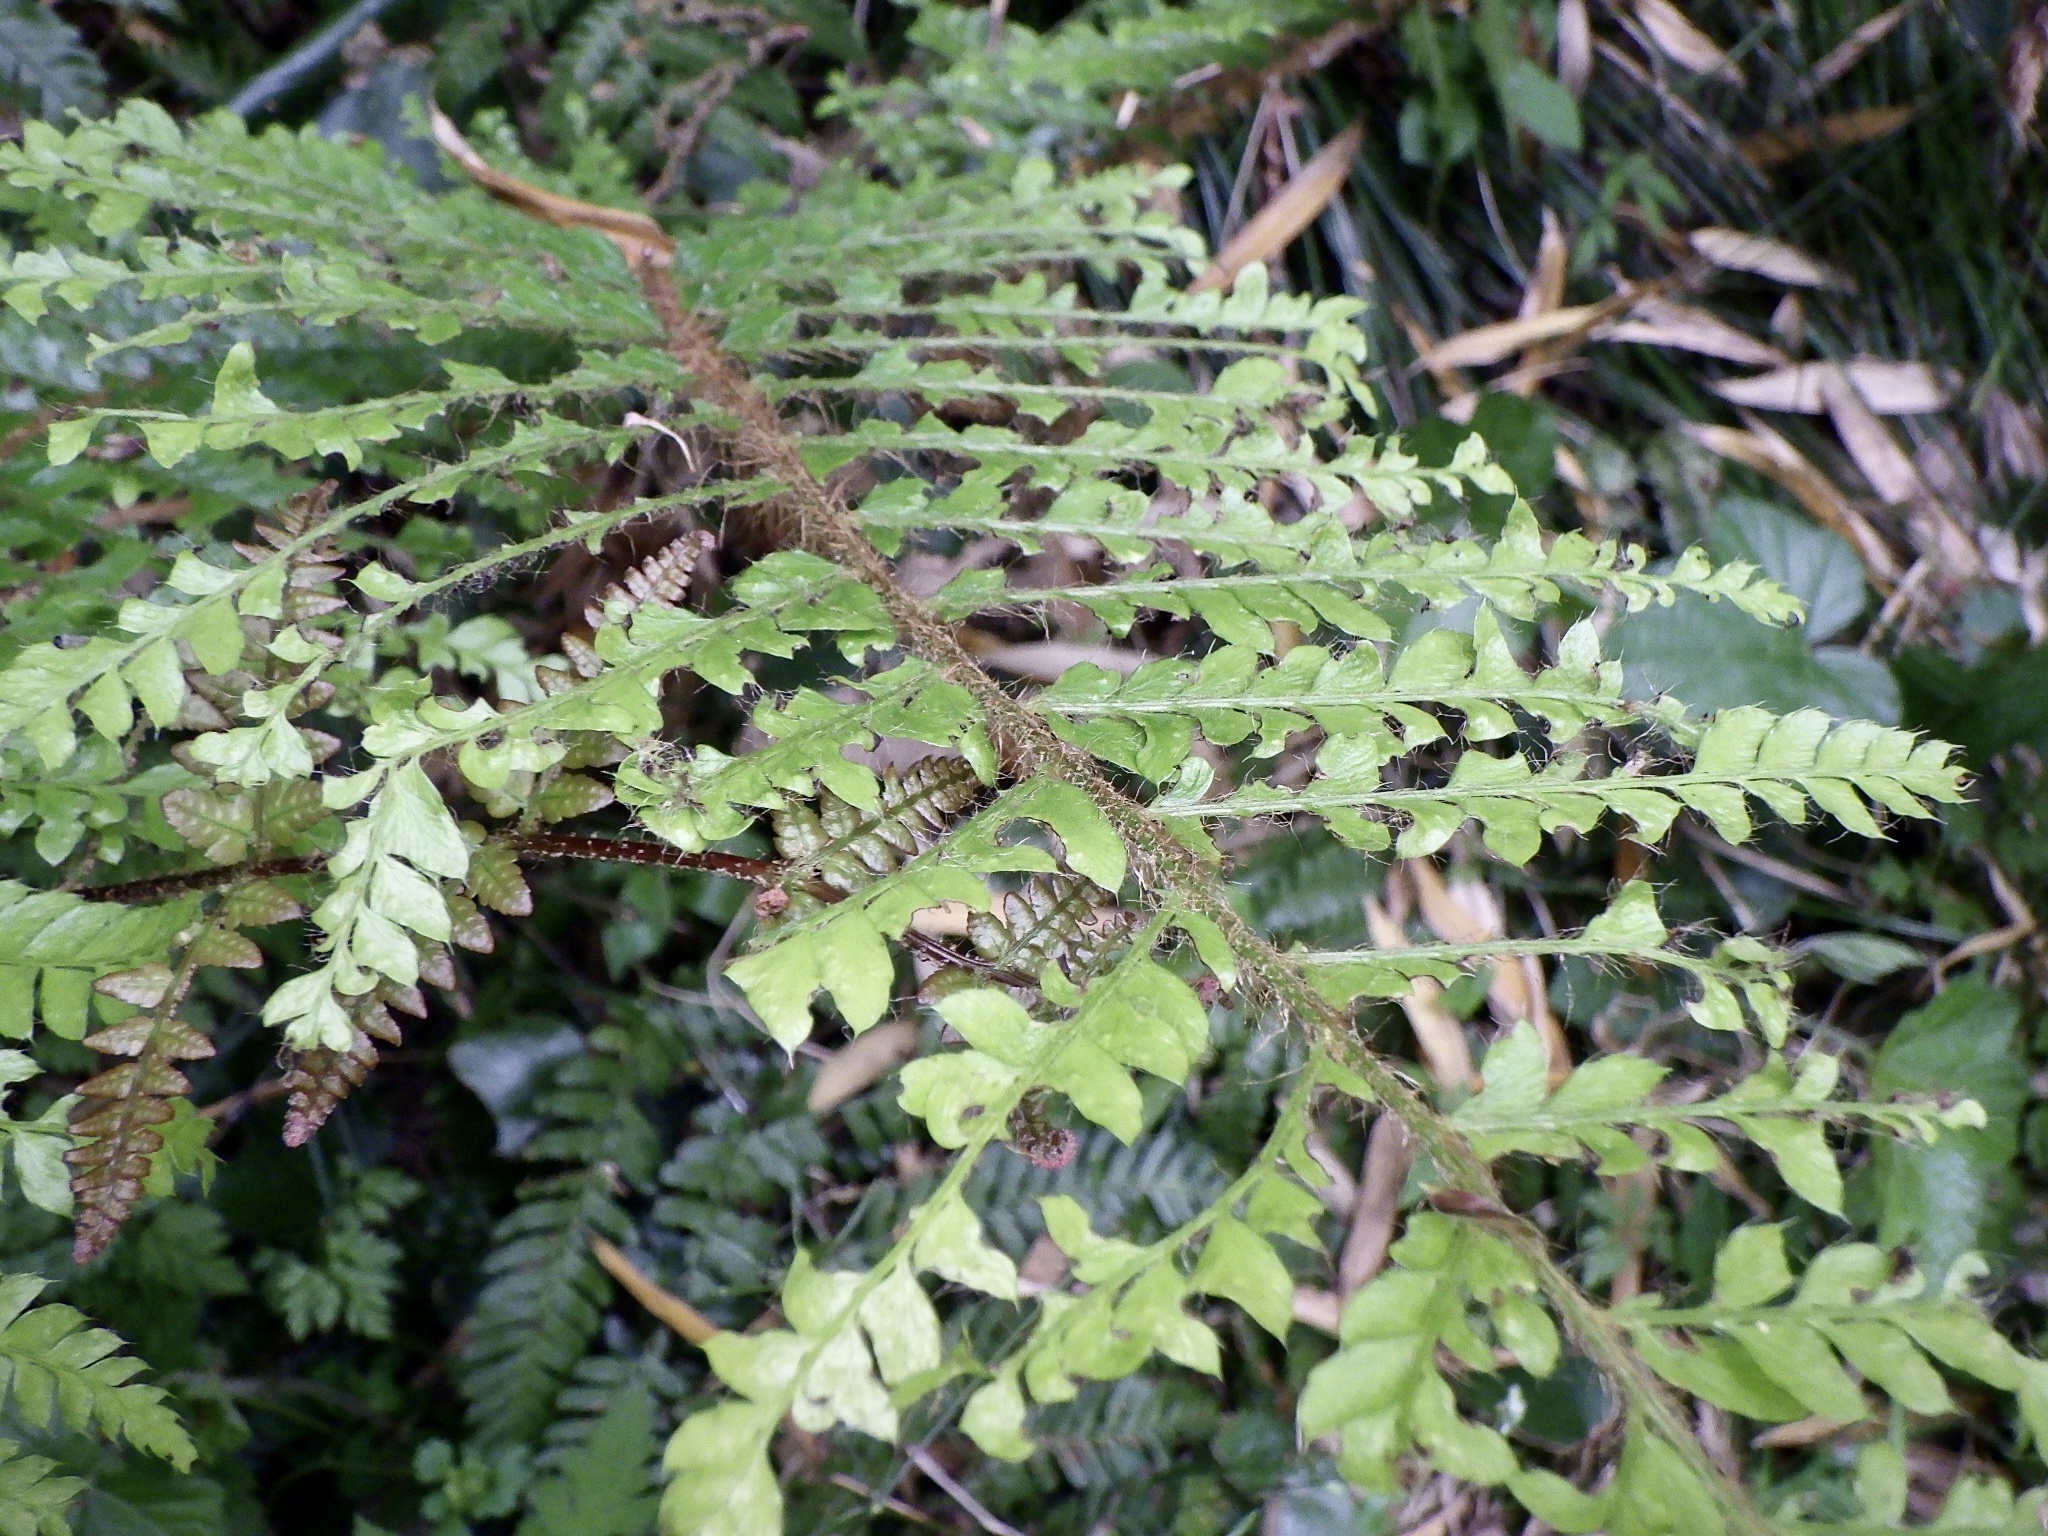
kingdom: Plantae
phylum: Tracheophyta
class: Polypodiopsida
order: Polypodiales
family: Dryopteridaceae
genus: Polystichum
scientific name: Polystichum luctuosum
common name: Korean rockfern
